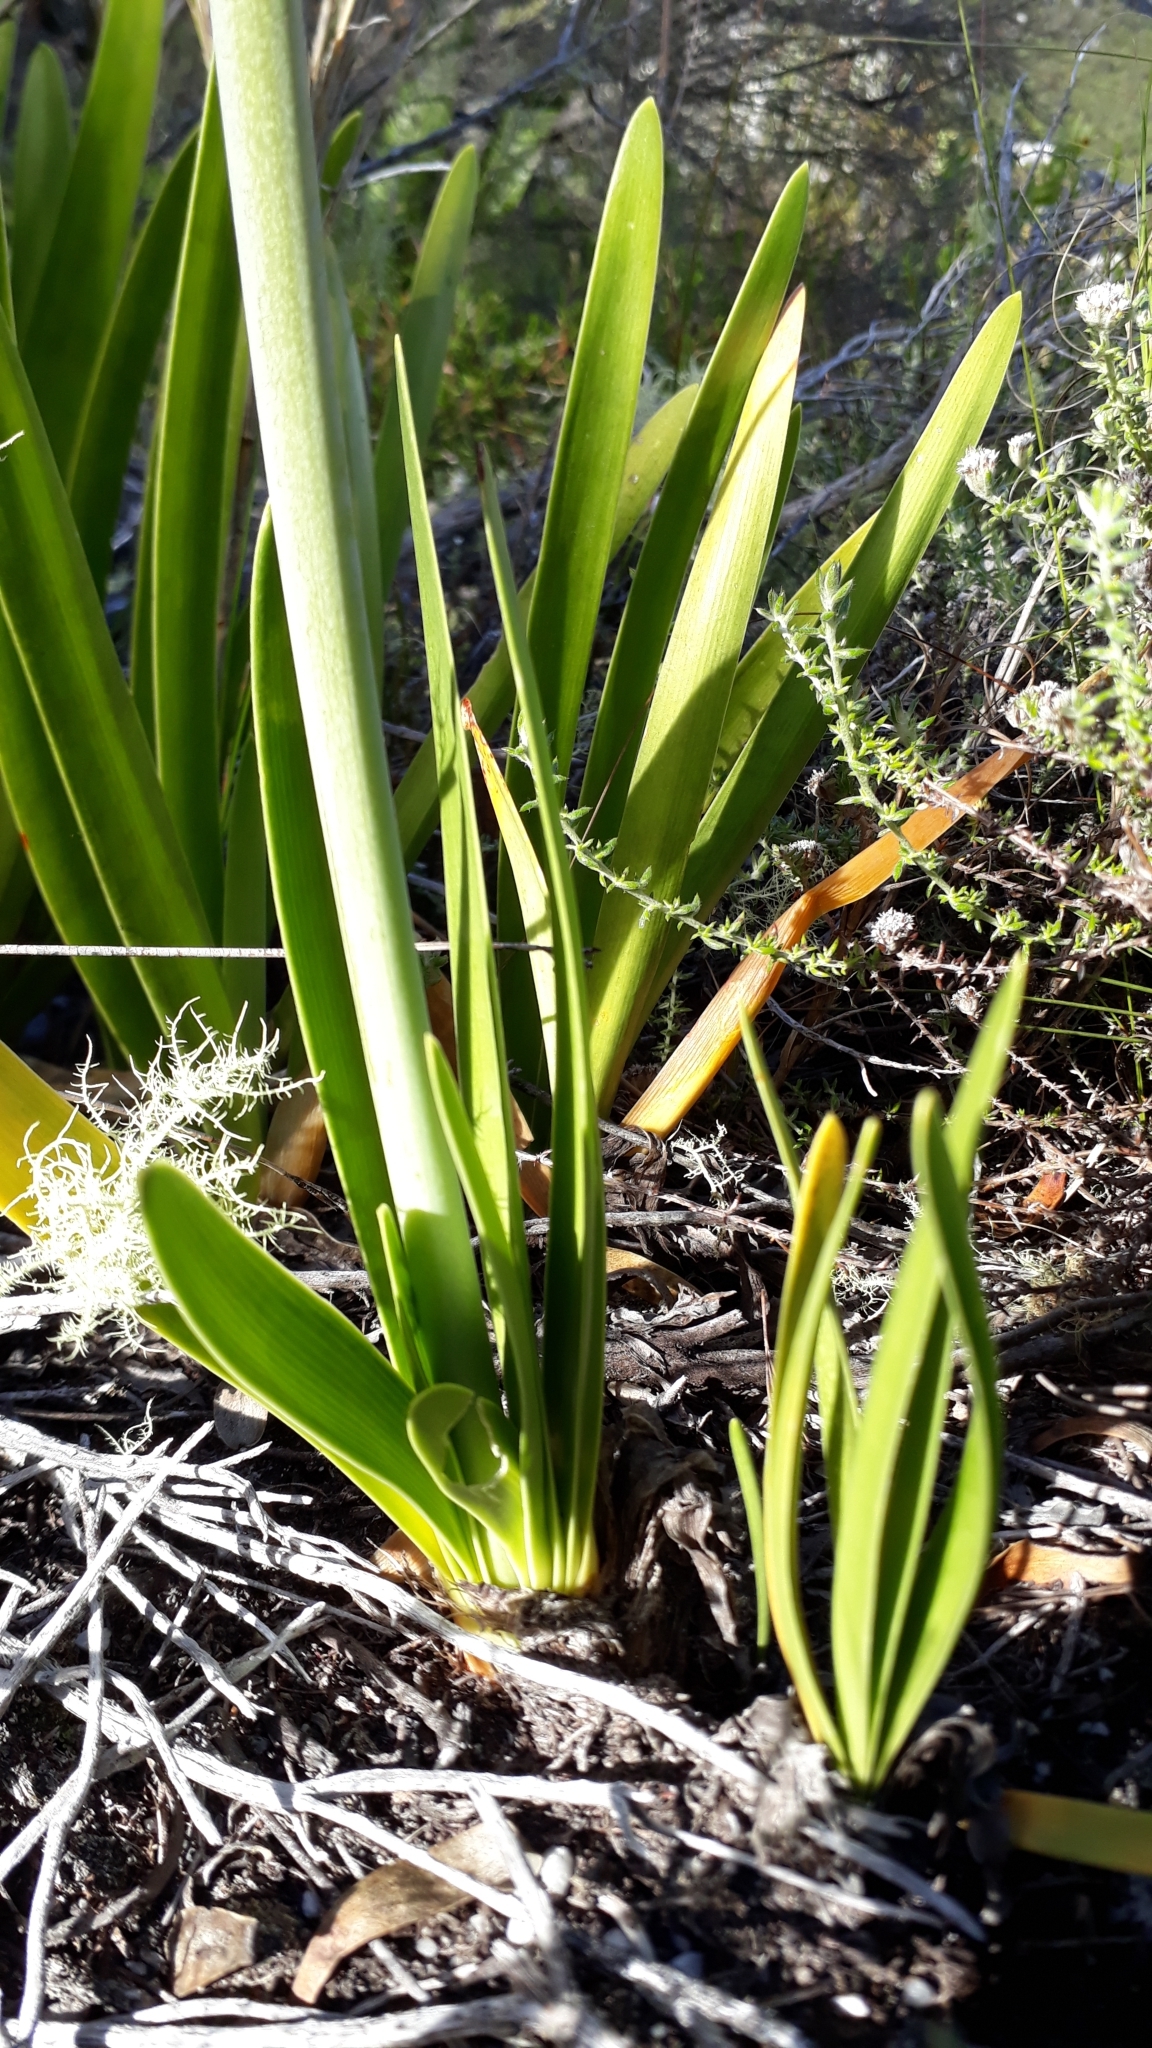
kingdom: Plantae
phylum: Tracheophyta
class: Liliopsida
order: Asparagales
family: Amaryllidaceae
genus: Agapanthus
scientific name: Agapanthus africanus
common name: Lily-of-the-nile
